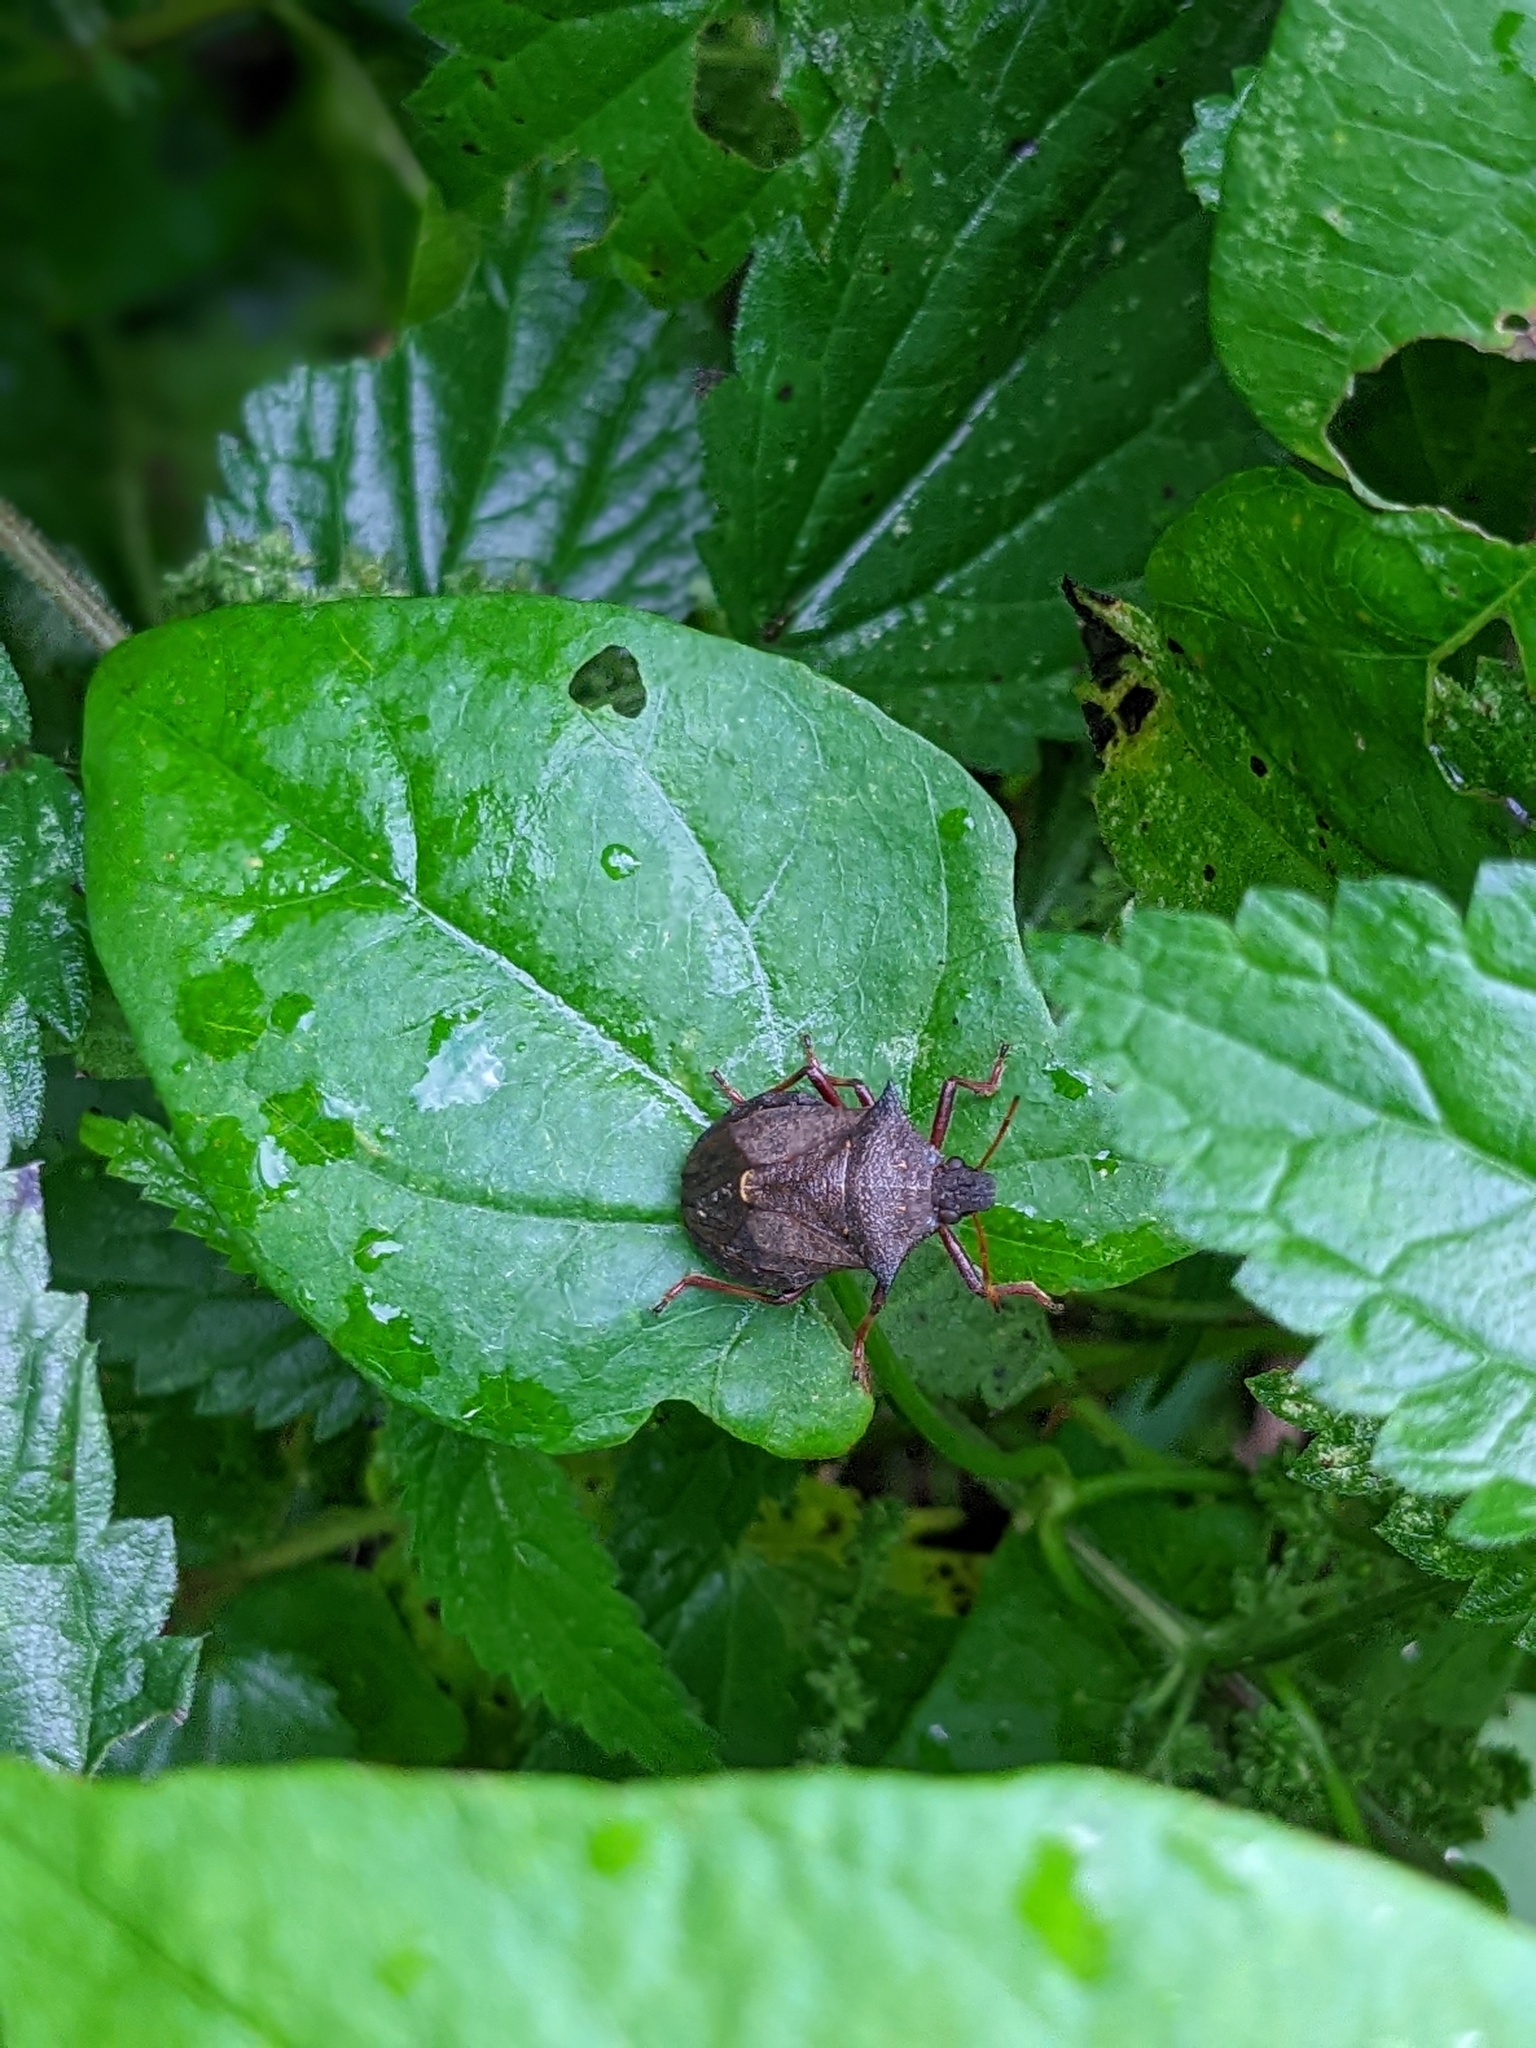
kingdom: Animalia
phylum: Arthropoda
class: Insecta
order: Hemiptera
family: Pentatomidae
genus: Picromerus
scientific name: Picromerus bidens
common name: Spiked shieldbug
